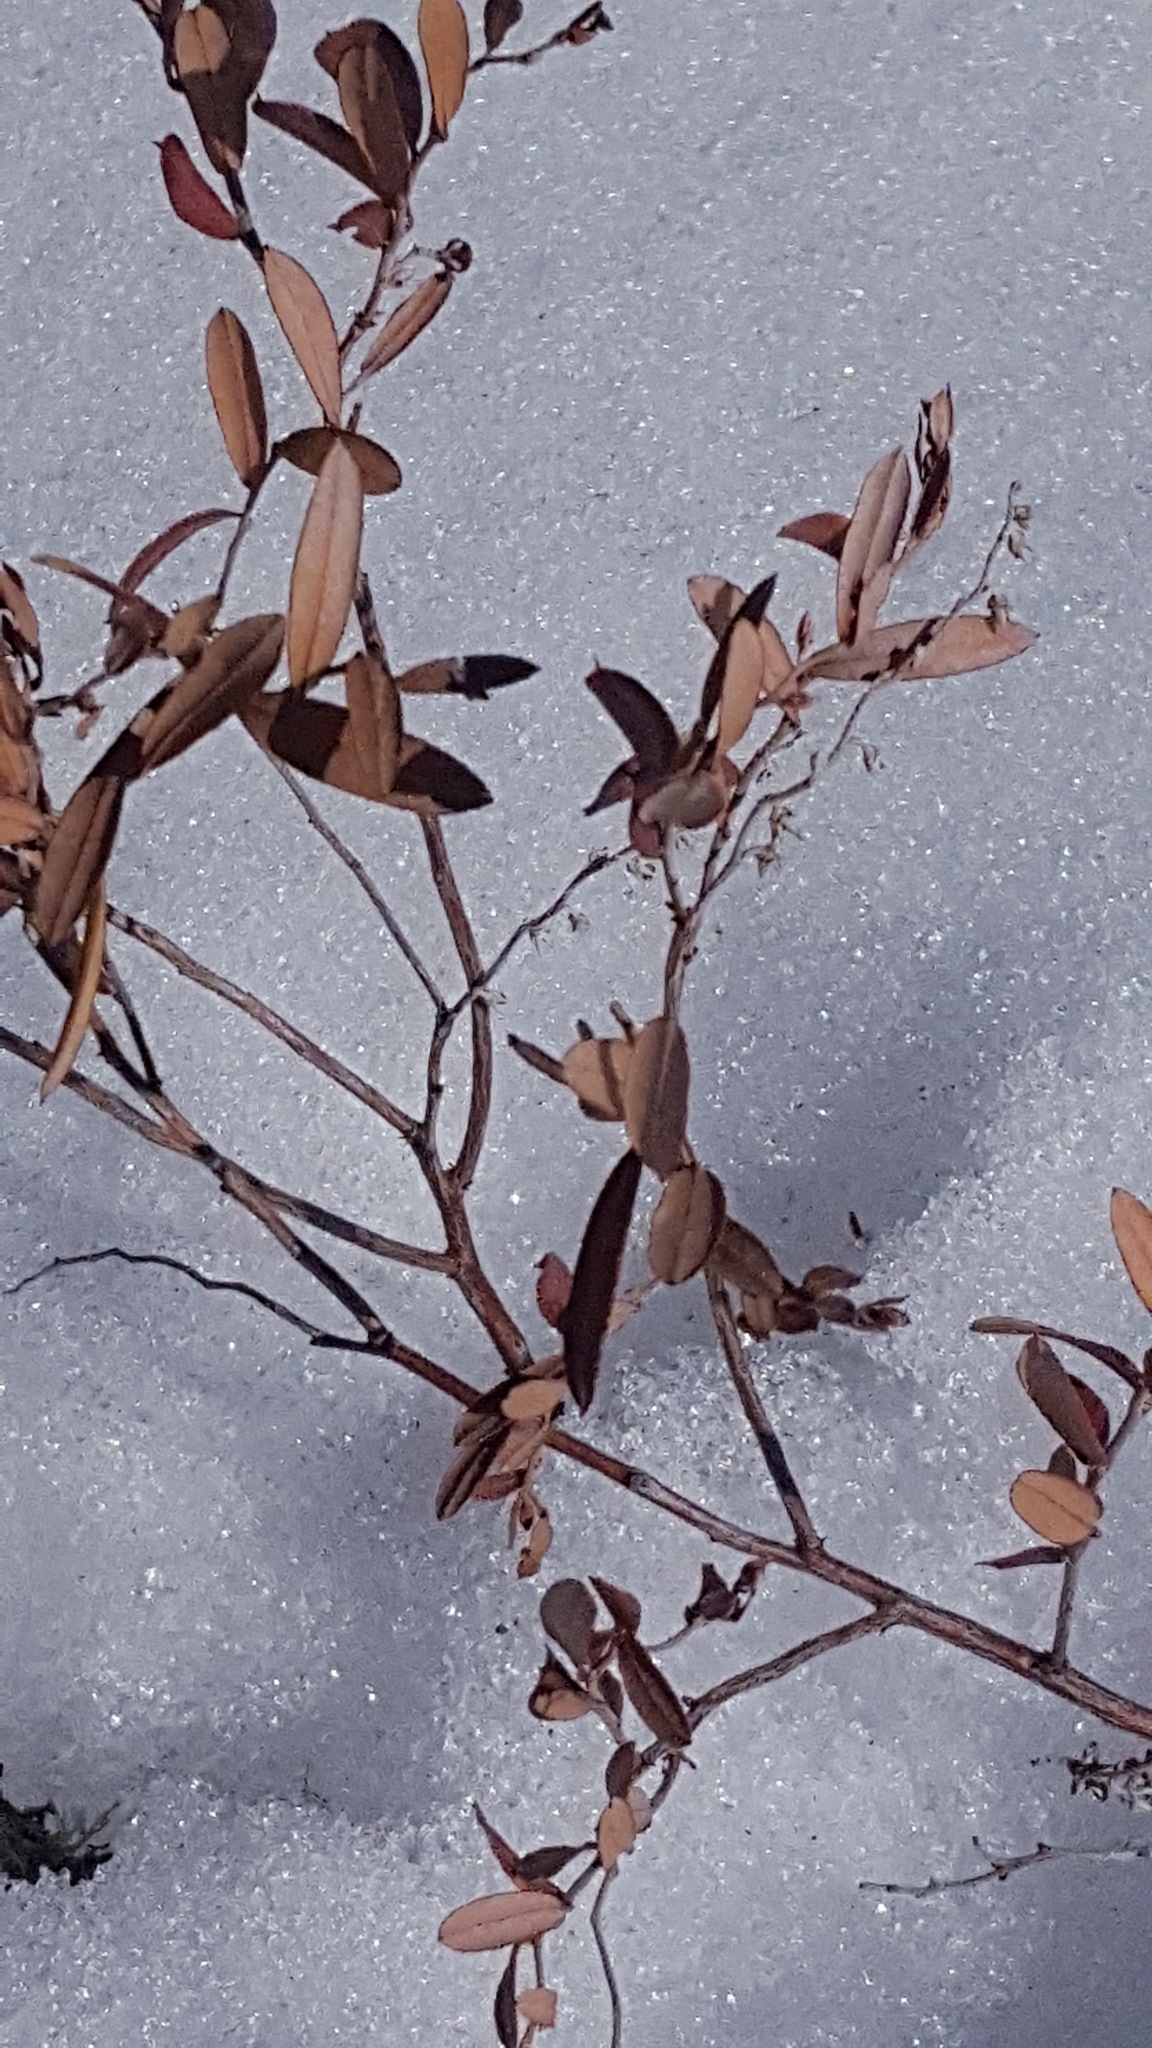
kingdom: Plantae
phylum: Tracheophyta
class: Magnoliopsida
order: Ericales
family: Ericaceae
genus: Chamaedaphne
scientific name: Chamaedaphne calyculata
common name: Leatherleaf
